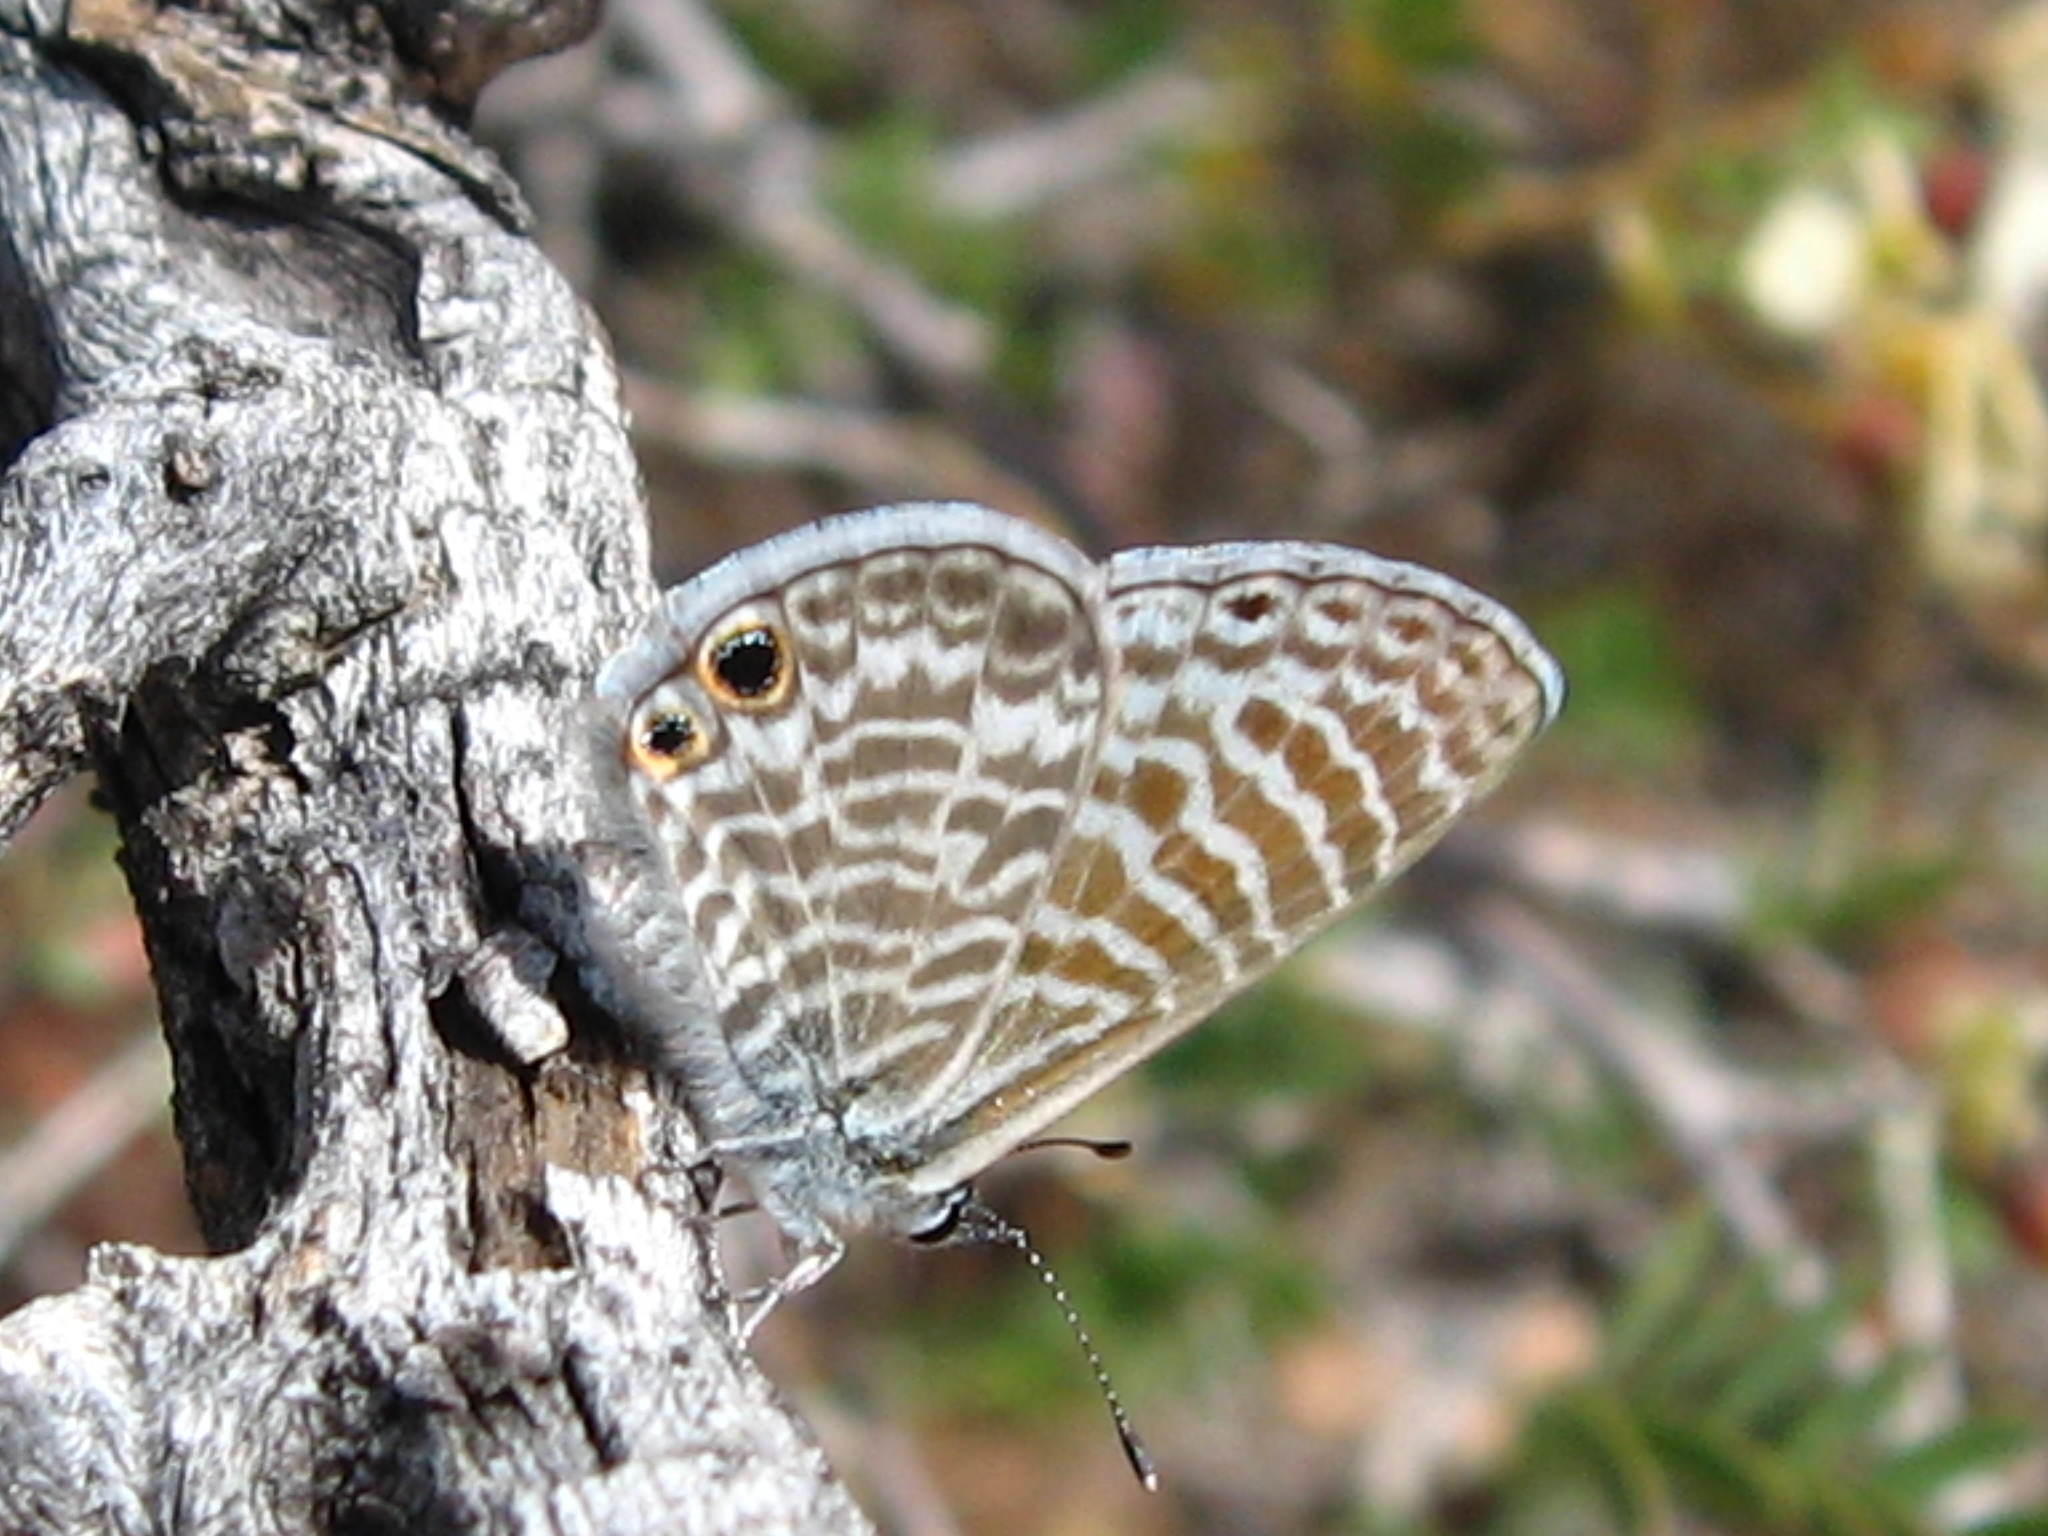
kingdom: Animalia
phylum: Arthropoda
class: Insecta
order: Lepidoptera
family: Lycaenidae
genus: Leptotes
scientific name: Leptotes marina
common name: Marine blue
